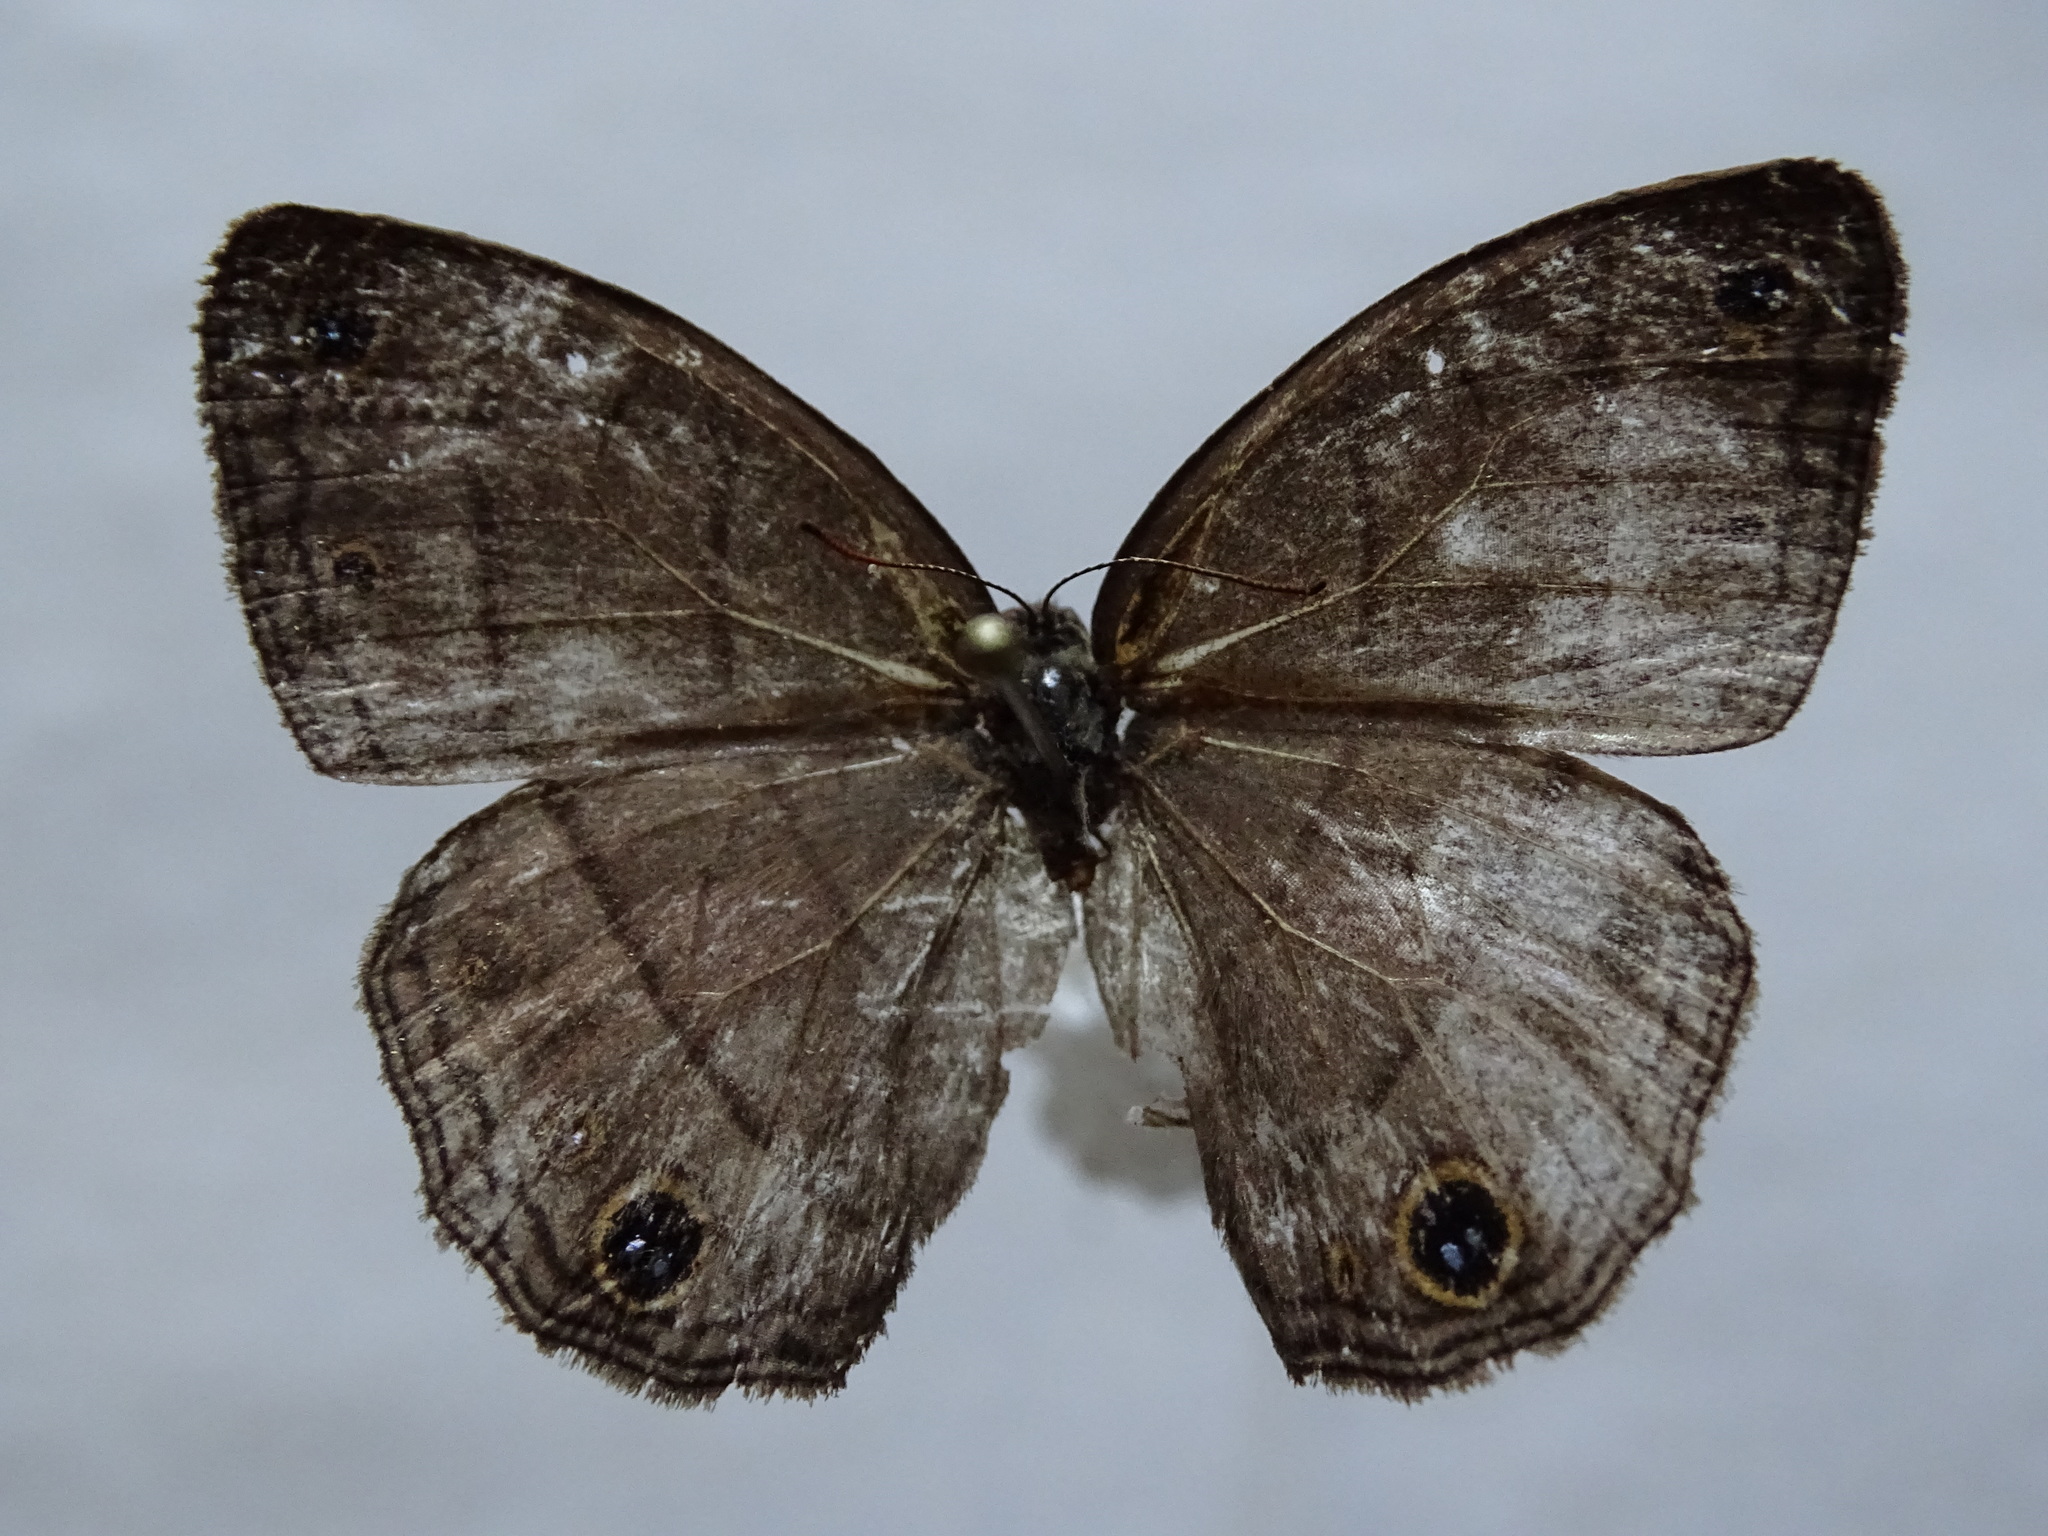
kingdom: Animalia
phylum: Arthropoda
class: Insecta
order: Lepidoptera
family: Nymphalidae
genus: Euptychia
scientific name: Euptychia Cissia pompilia
